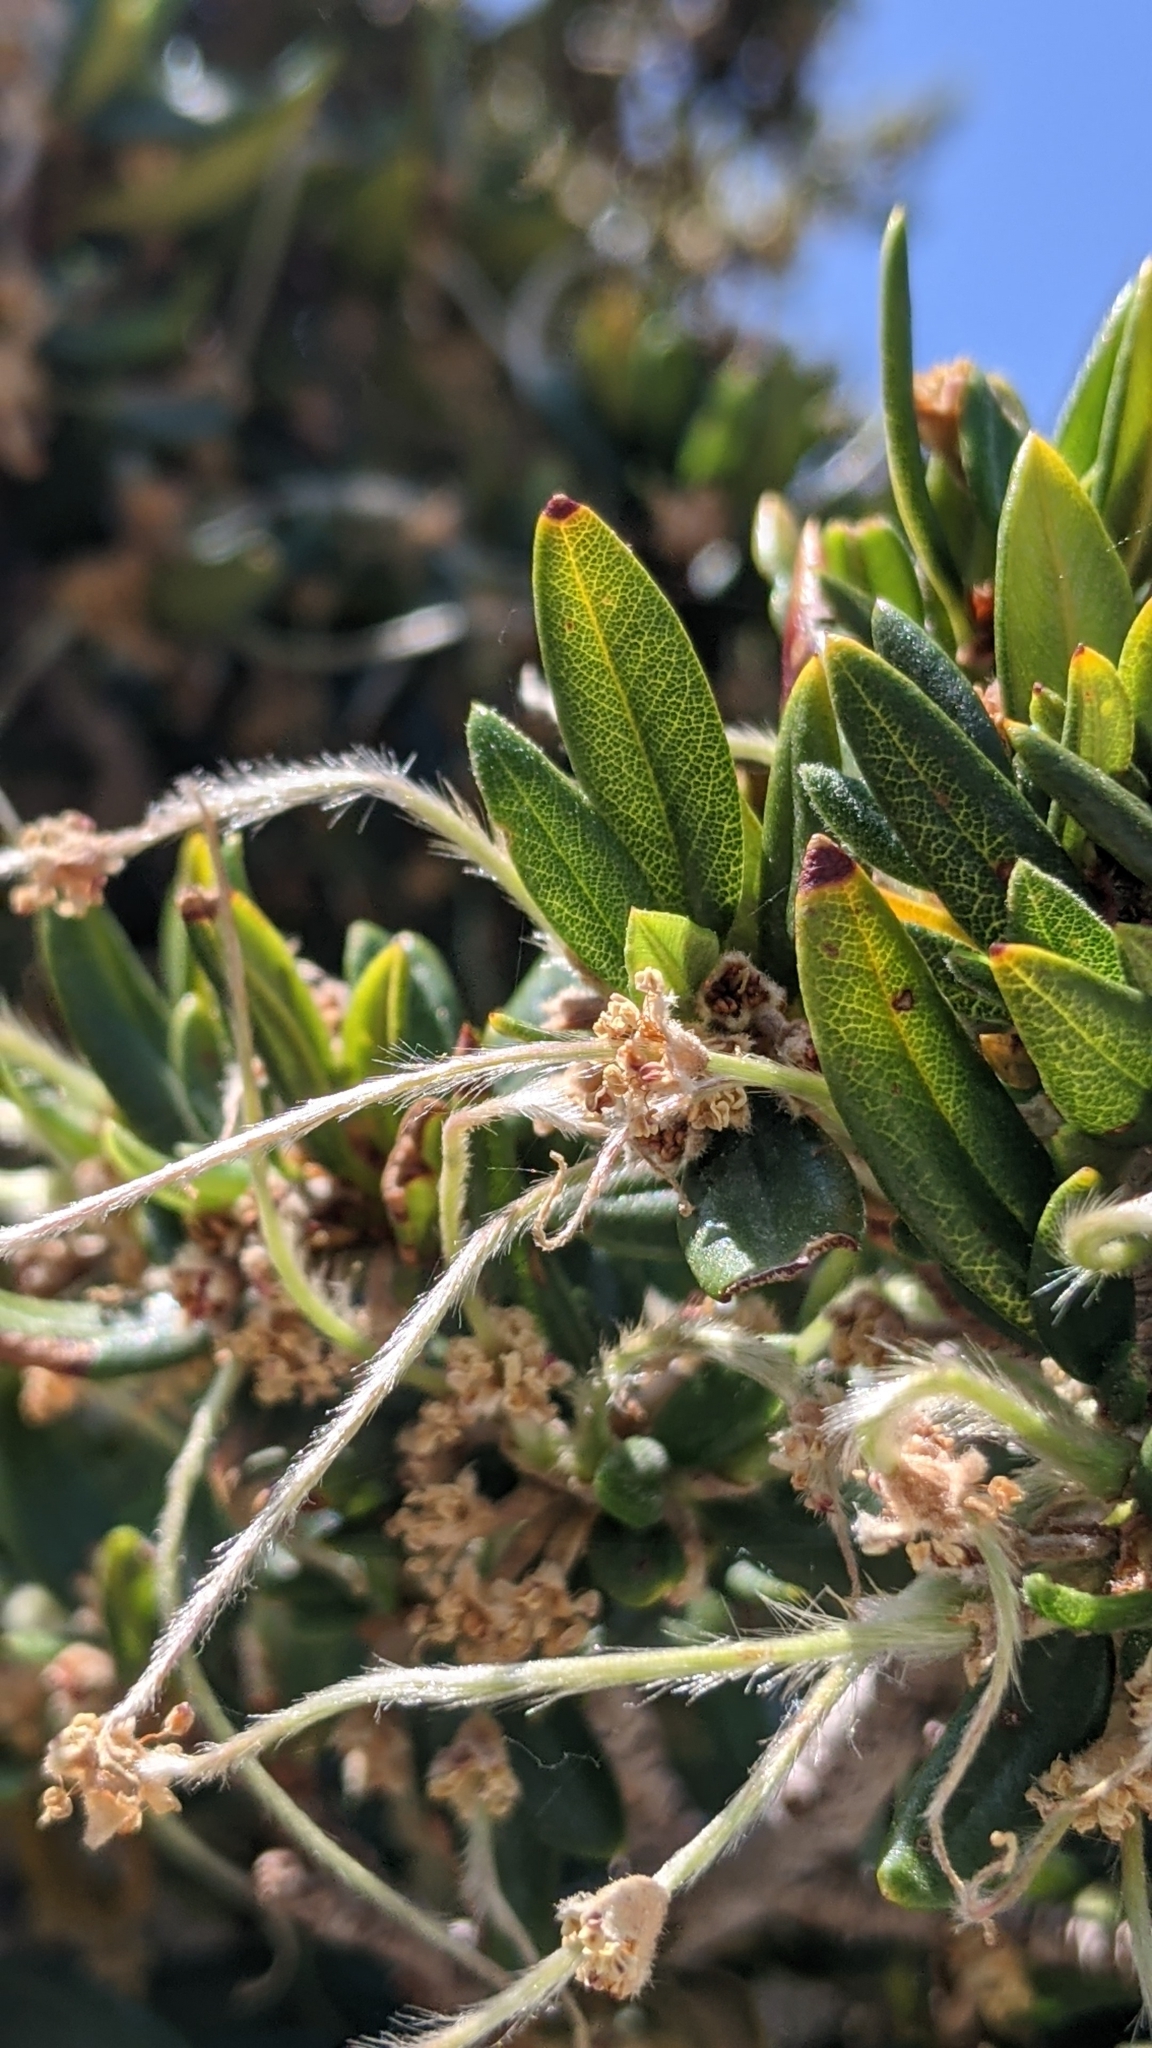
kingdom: Plantae
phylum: Tracheophyta
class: Magnoliopsida
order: Rosales
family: Rosaceae
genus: Cercocarpus
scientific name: Cercocarpus ledifolius
